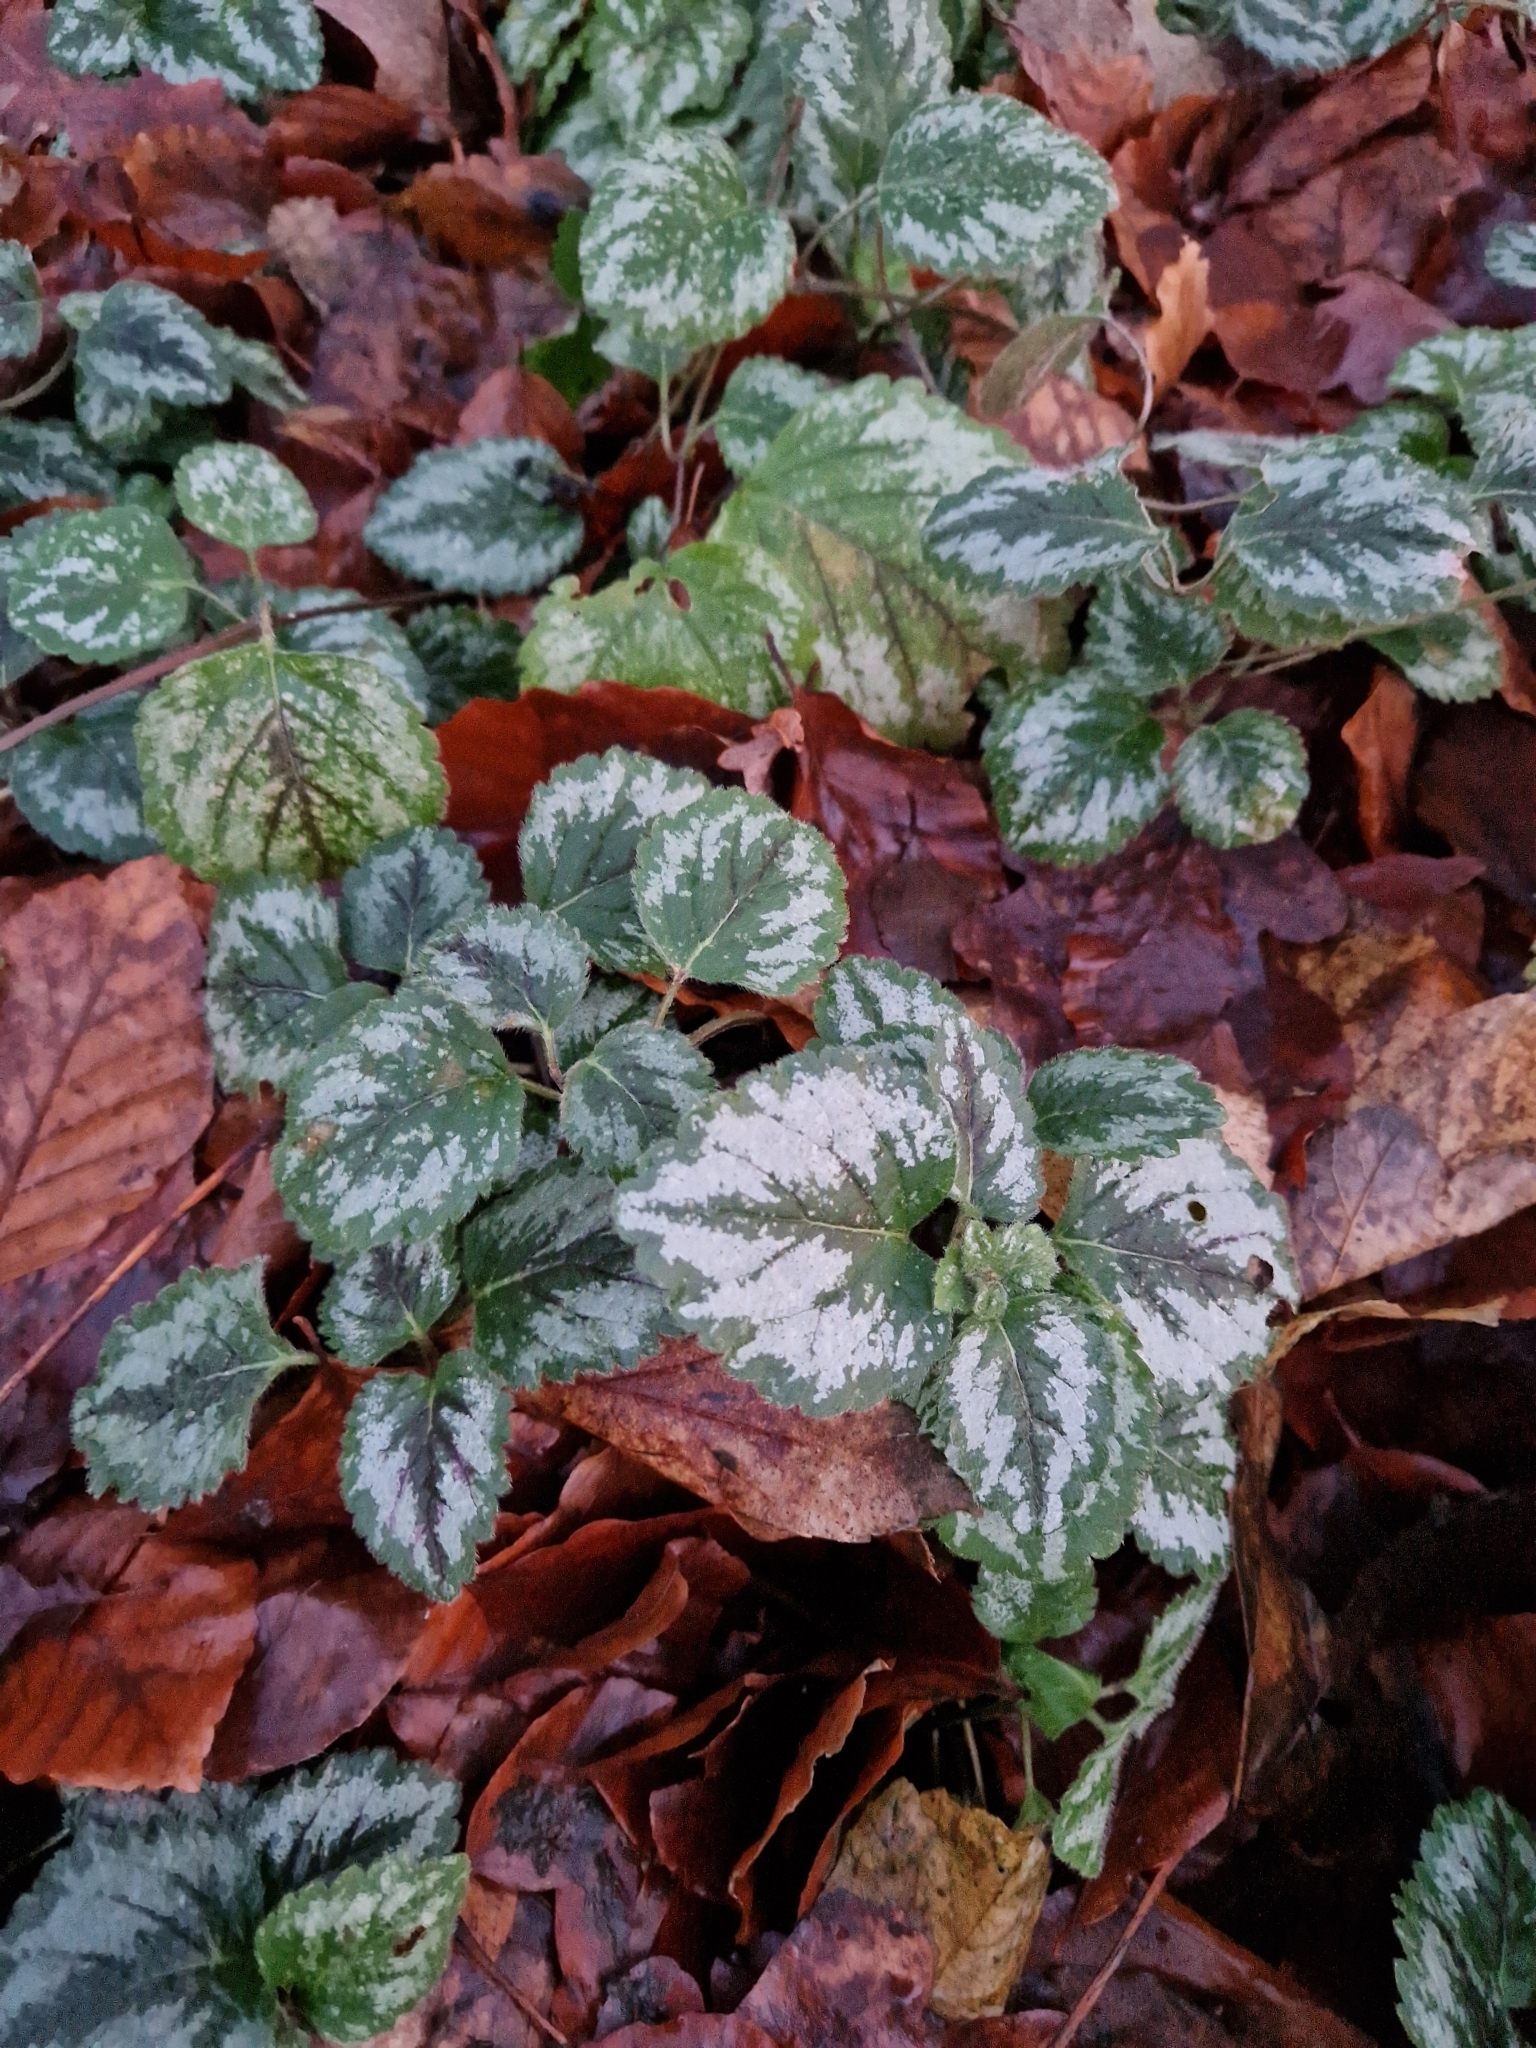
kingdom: Plantae
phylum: Tracheophyta
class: Magnoliopsida
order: Lamiales
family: Lamiaceae
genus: Lamium
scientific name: Lamium galeobdolon
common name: Yellow archangel
